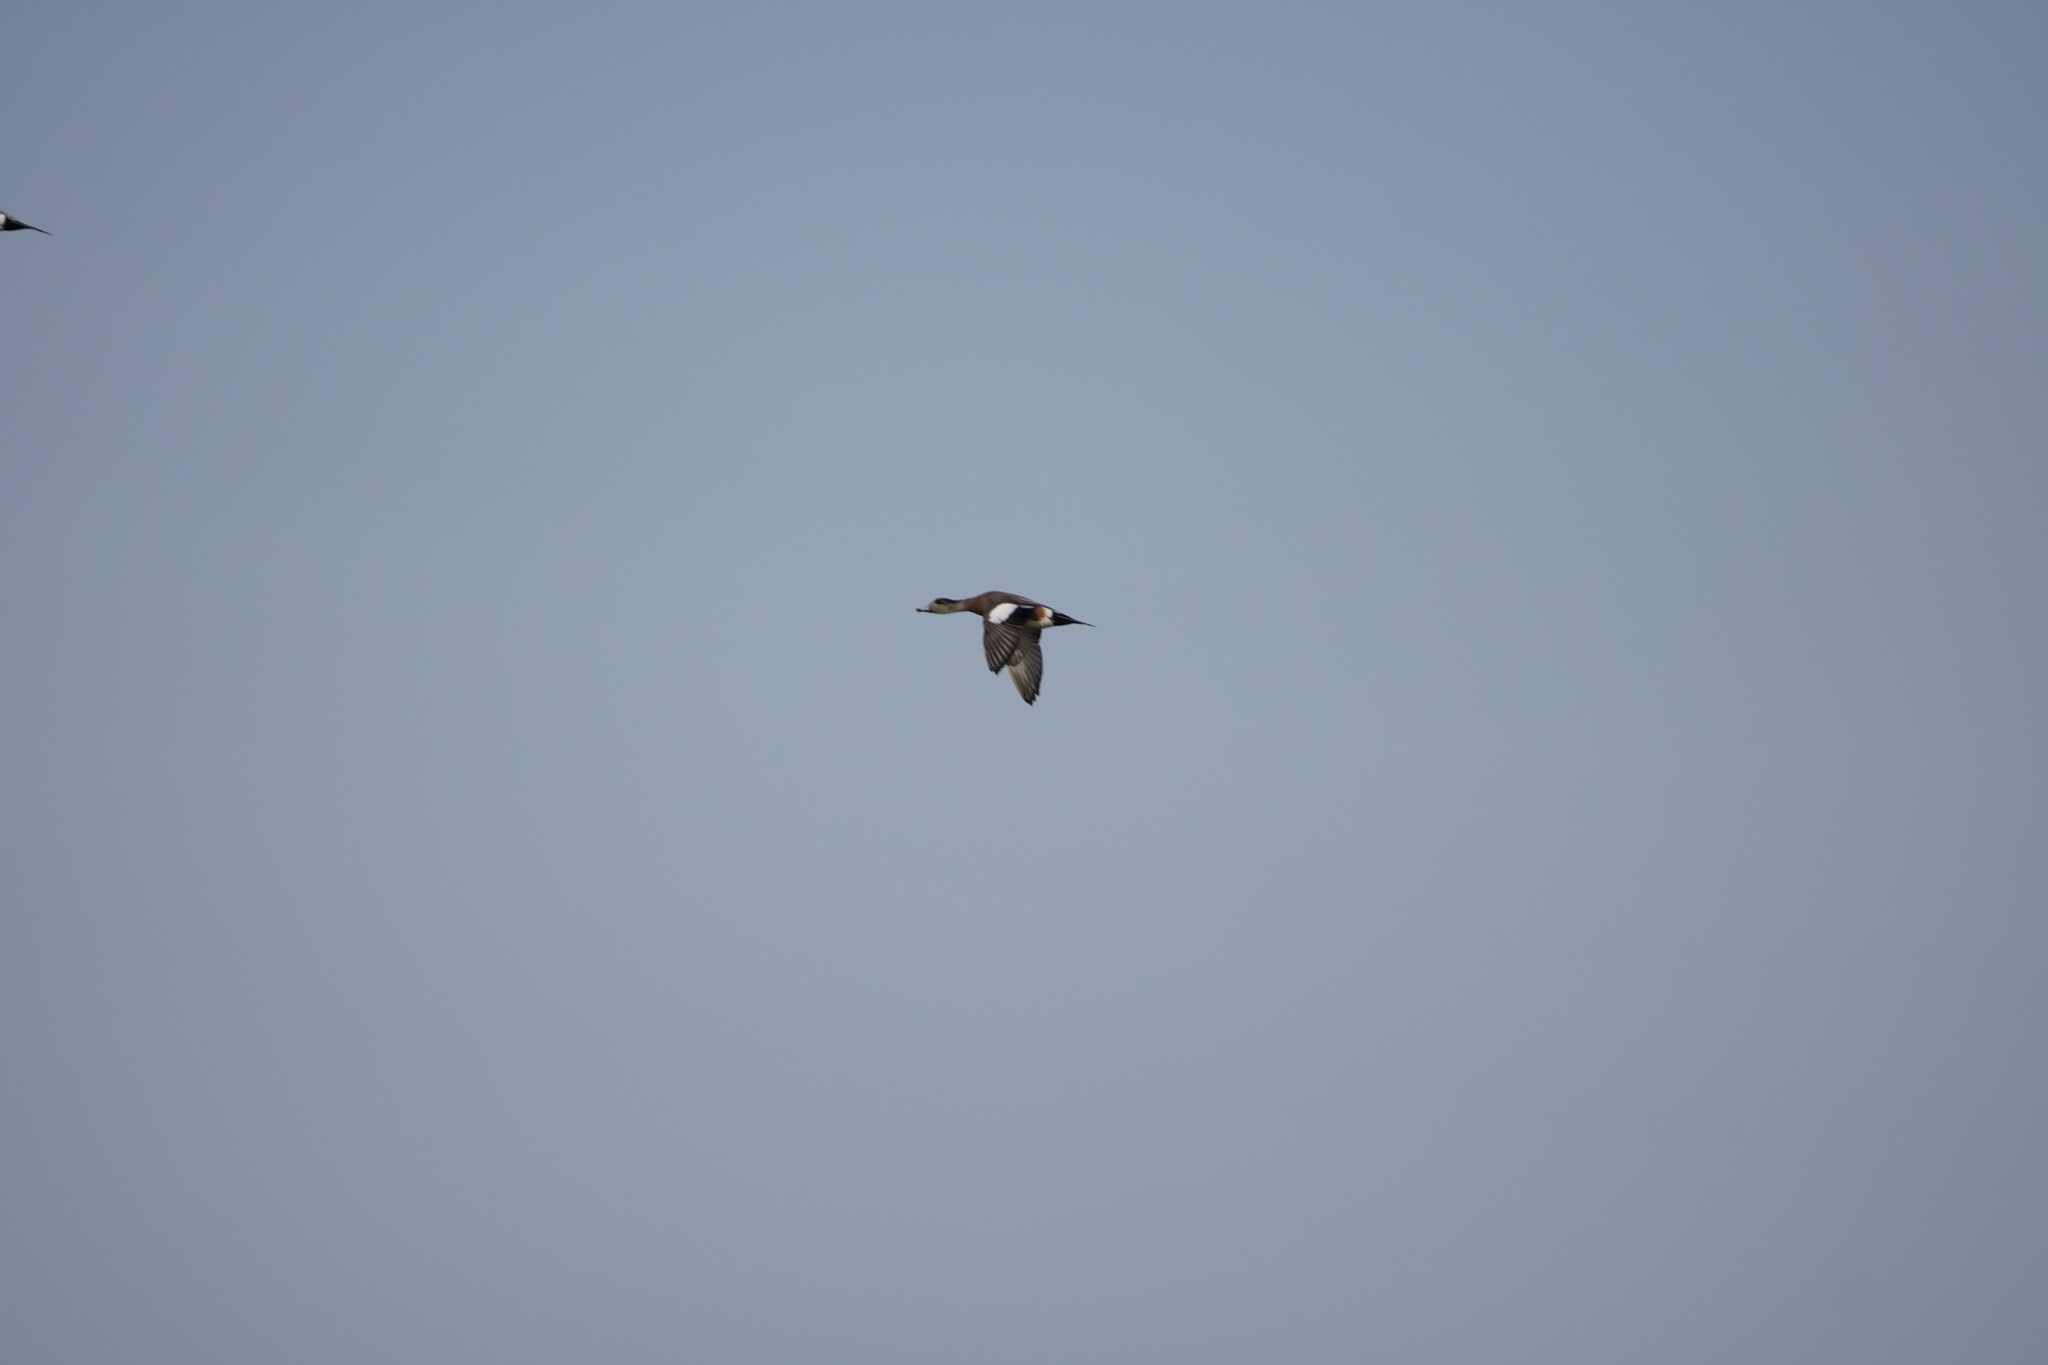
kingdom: Animalia
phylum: Chordata
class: Aves
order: Anseriformes
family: Anatidae
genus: Mareca
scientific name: Mareca americana
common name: American wigeon
